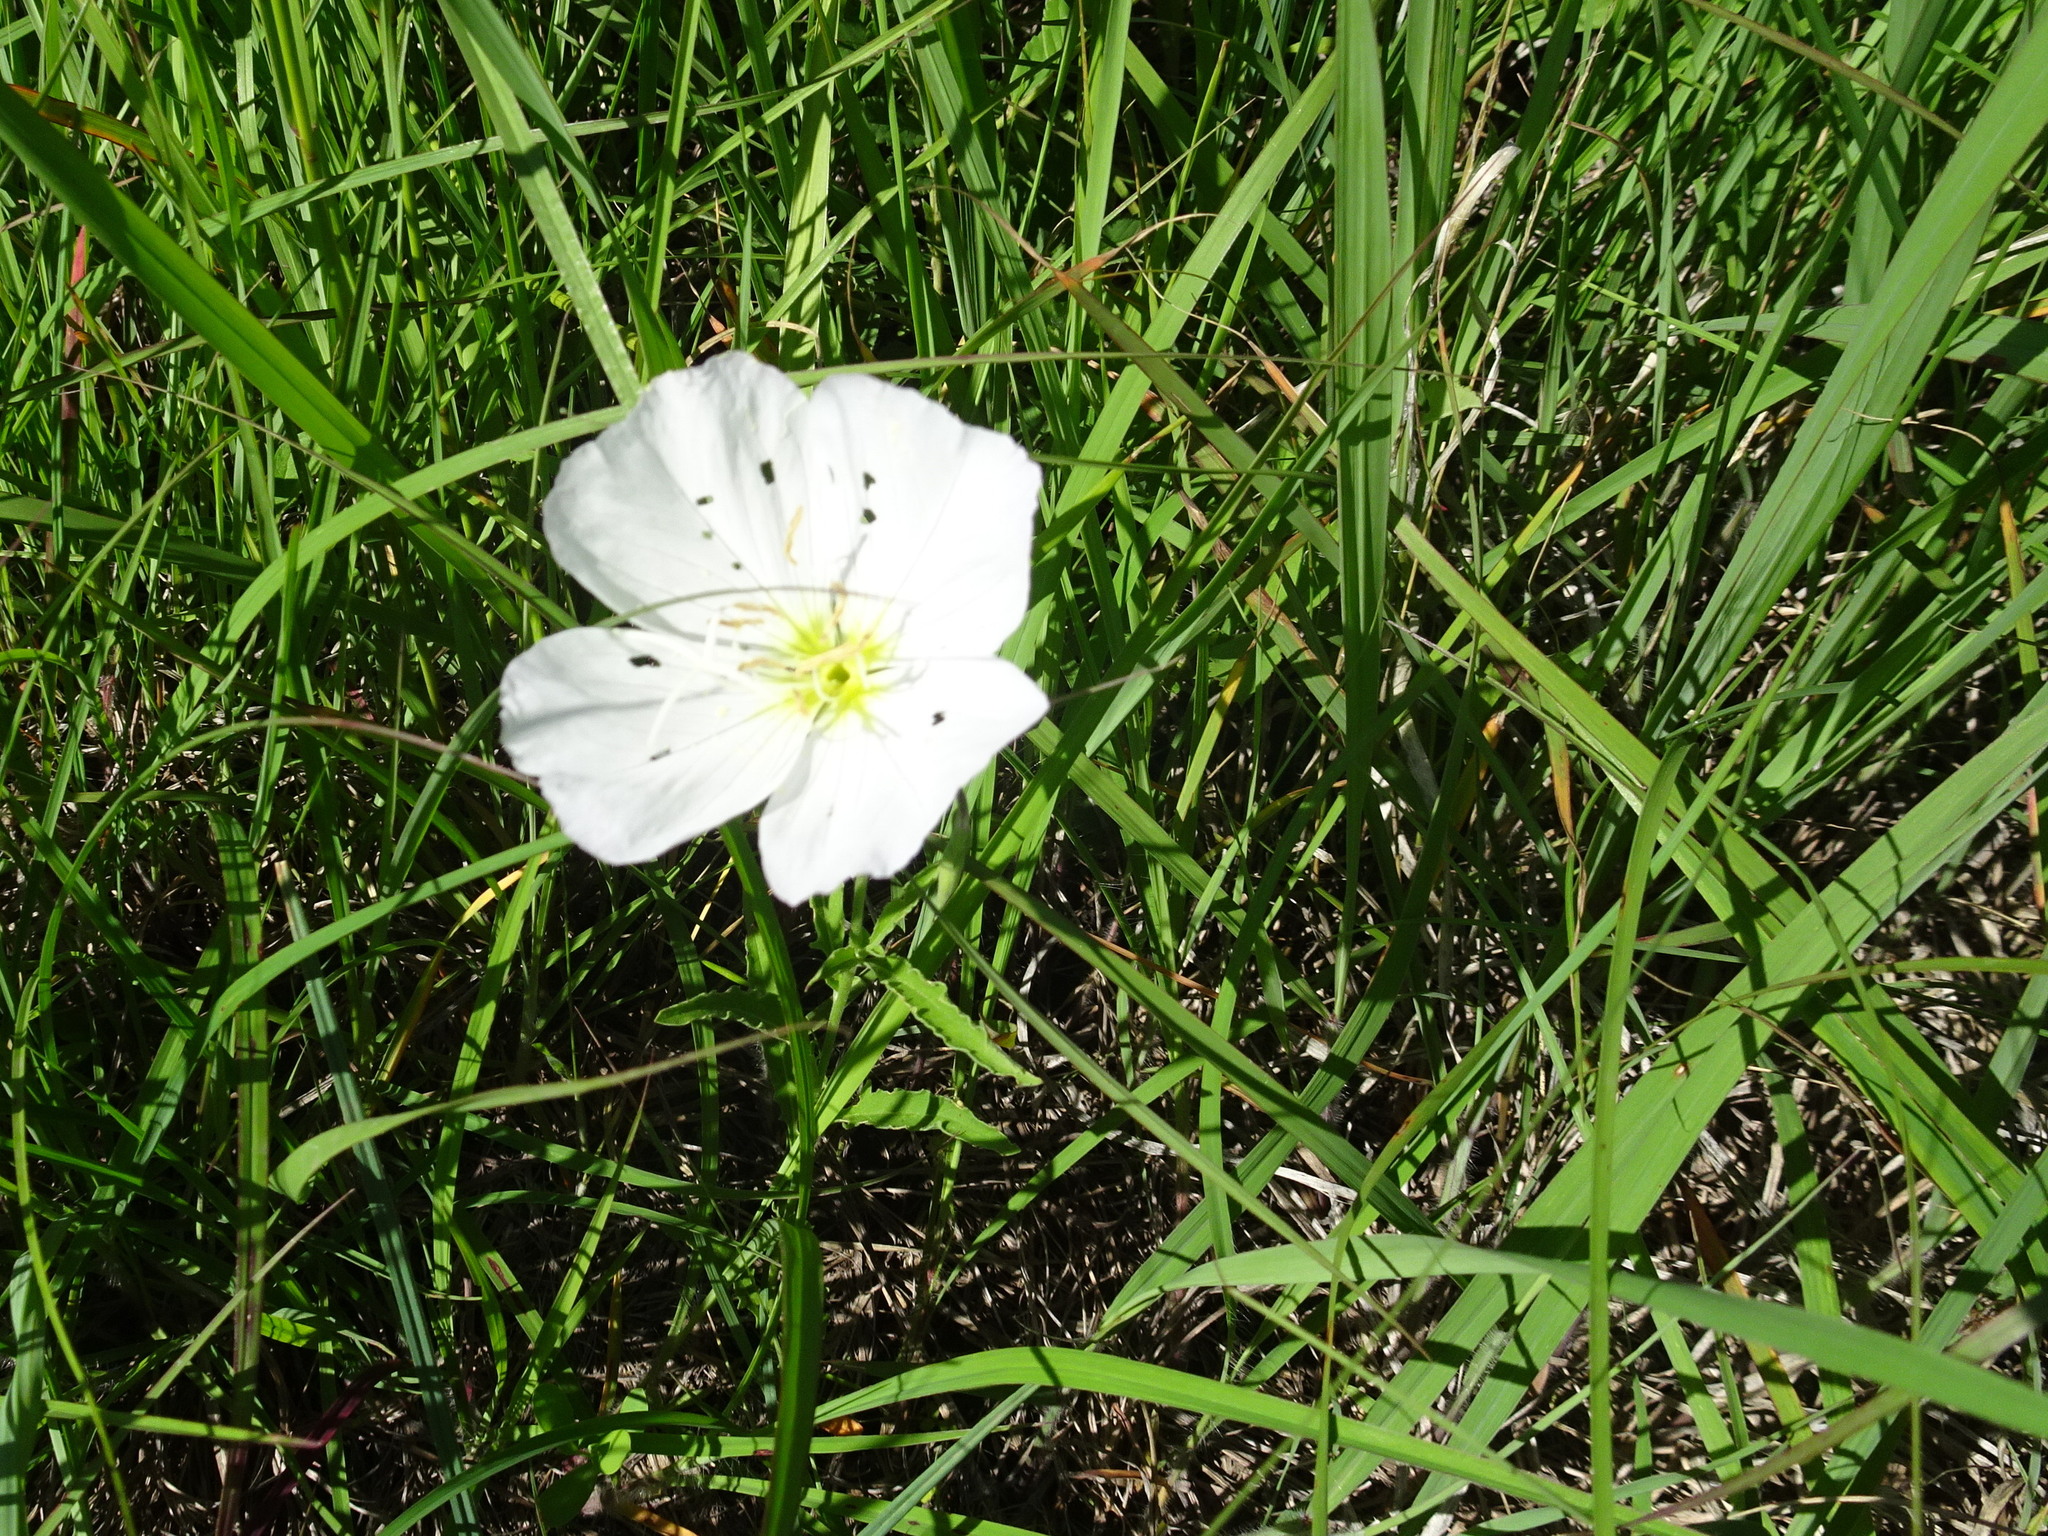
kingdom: Plantae
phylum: Tracheophyta
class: Magnoliopsida
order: Myrtales
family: Onagraceae
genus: Oenothera
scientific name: Oenothera speciosa
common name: White evening-primrose
